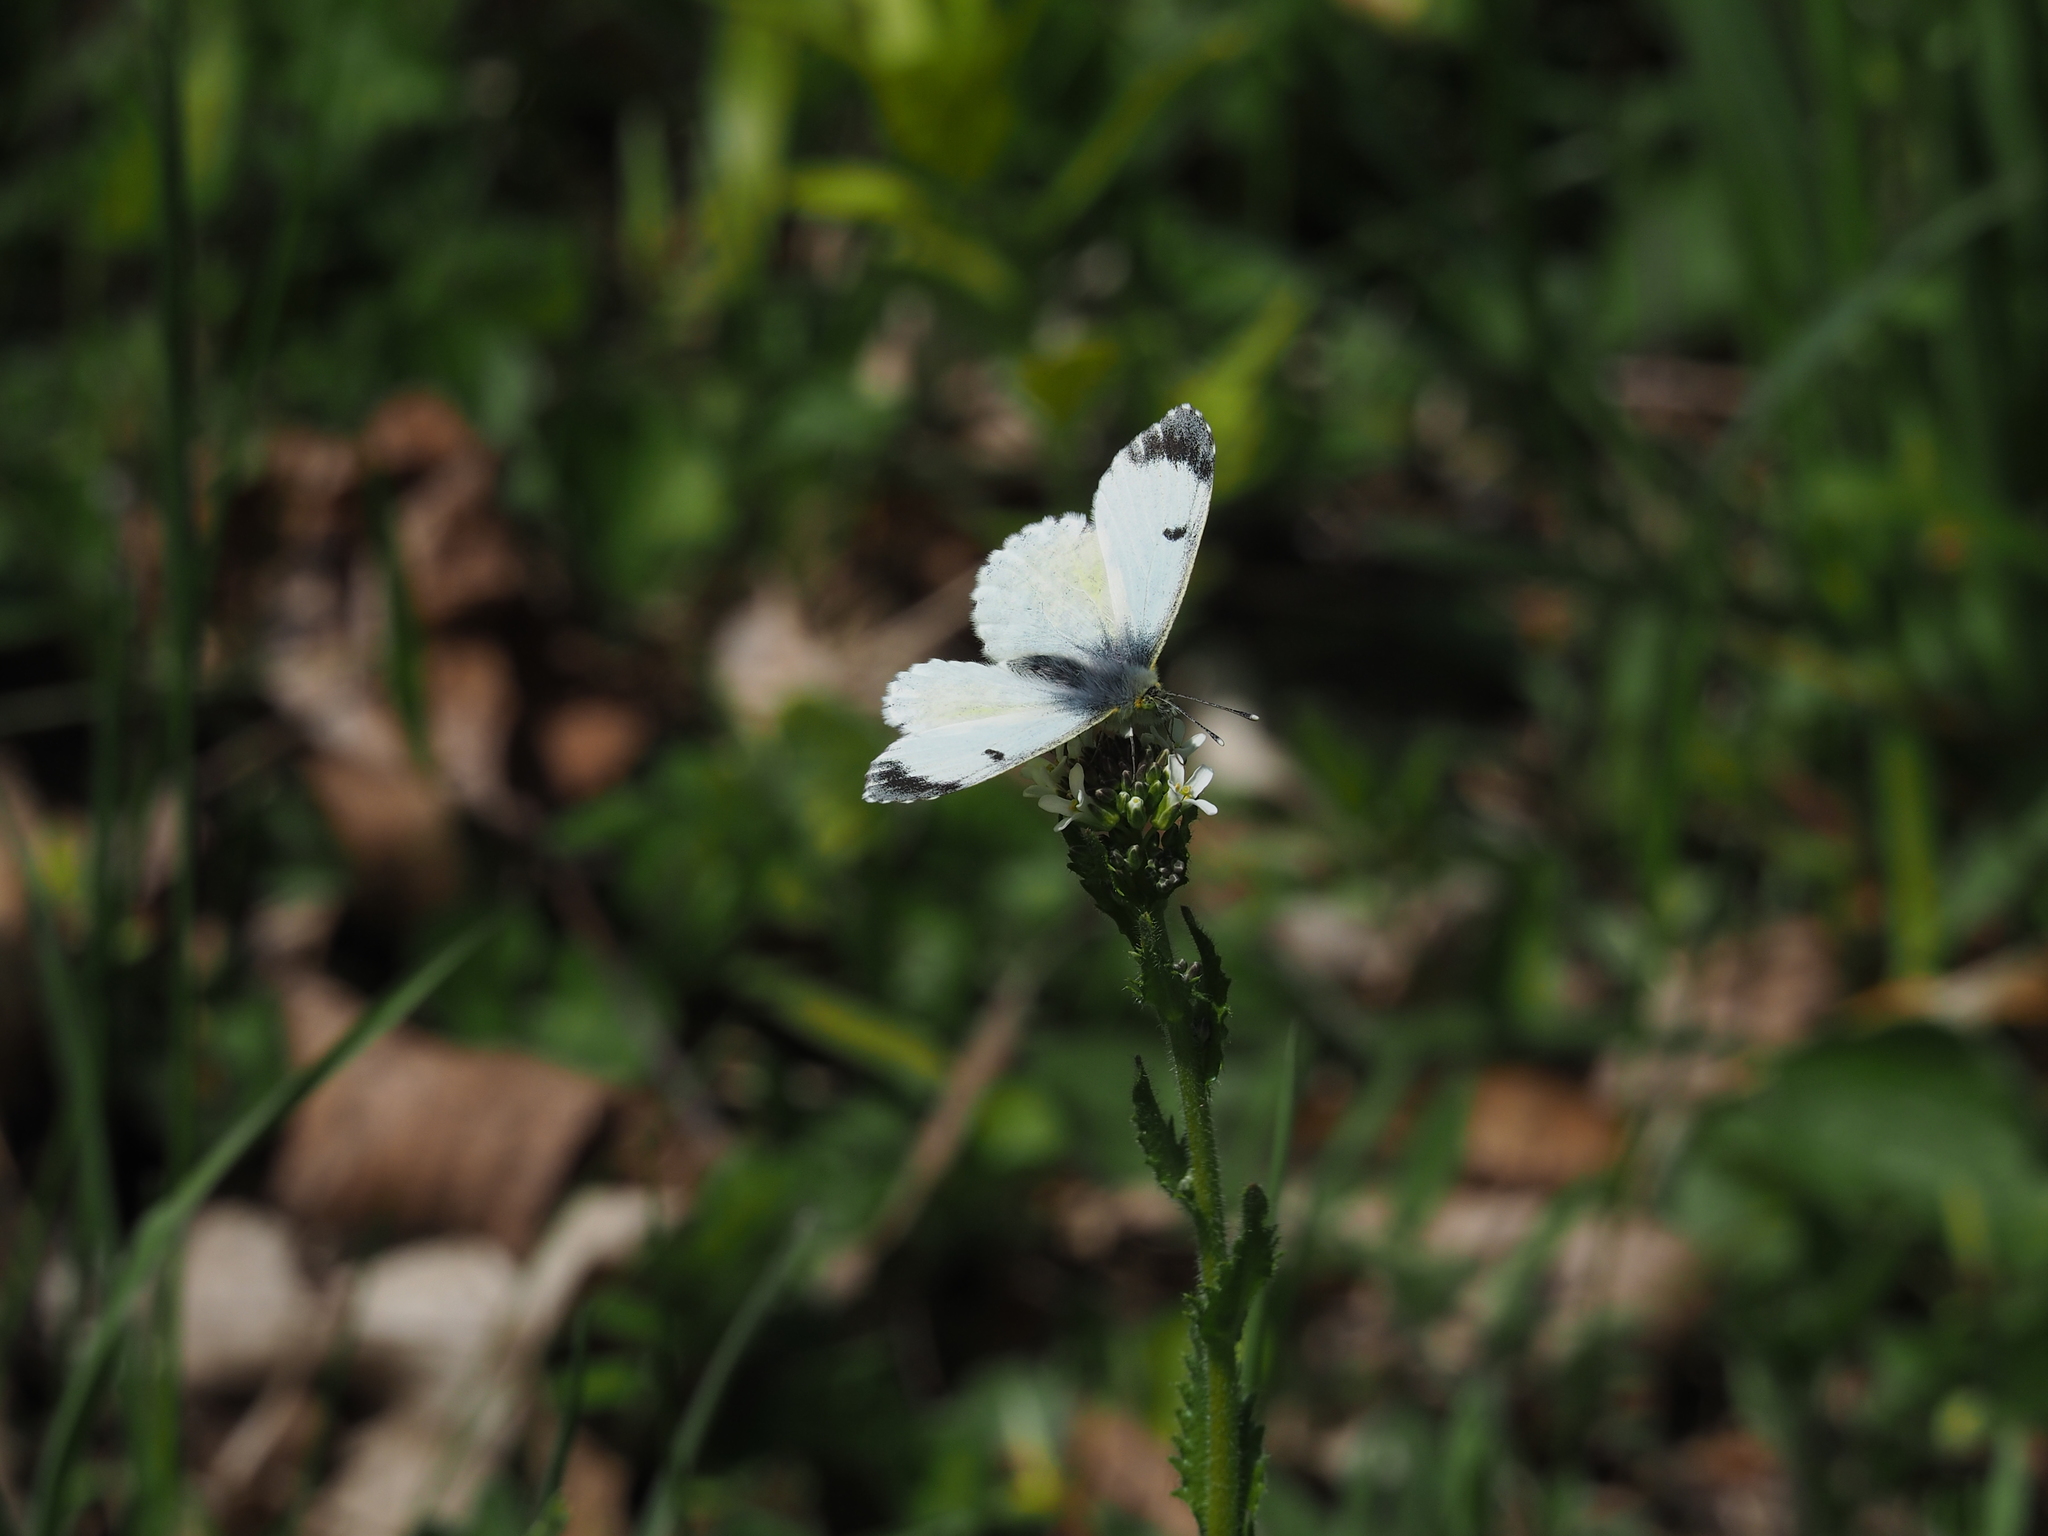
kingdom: Animalia
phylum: Arthropoda
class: Insecta
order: Lepidoptera
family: Pieridae
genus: Anthocharis
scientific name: Anthocharis cardamines
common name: Orange-tip
